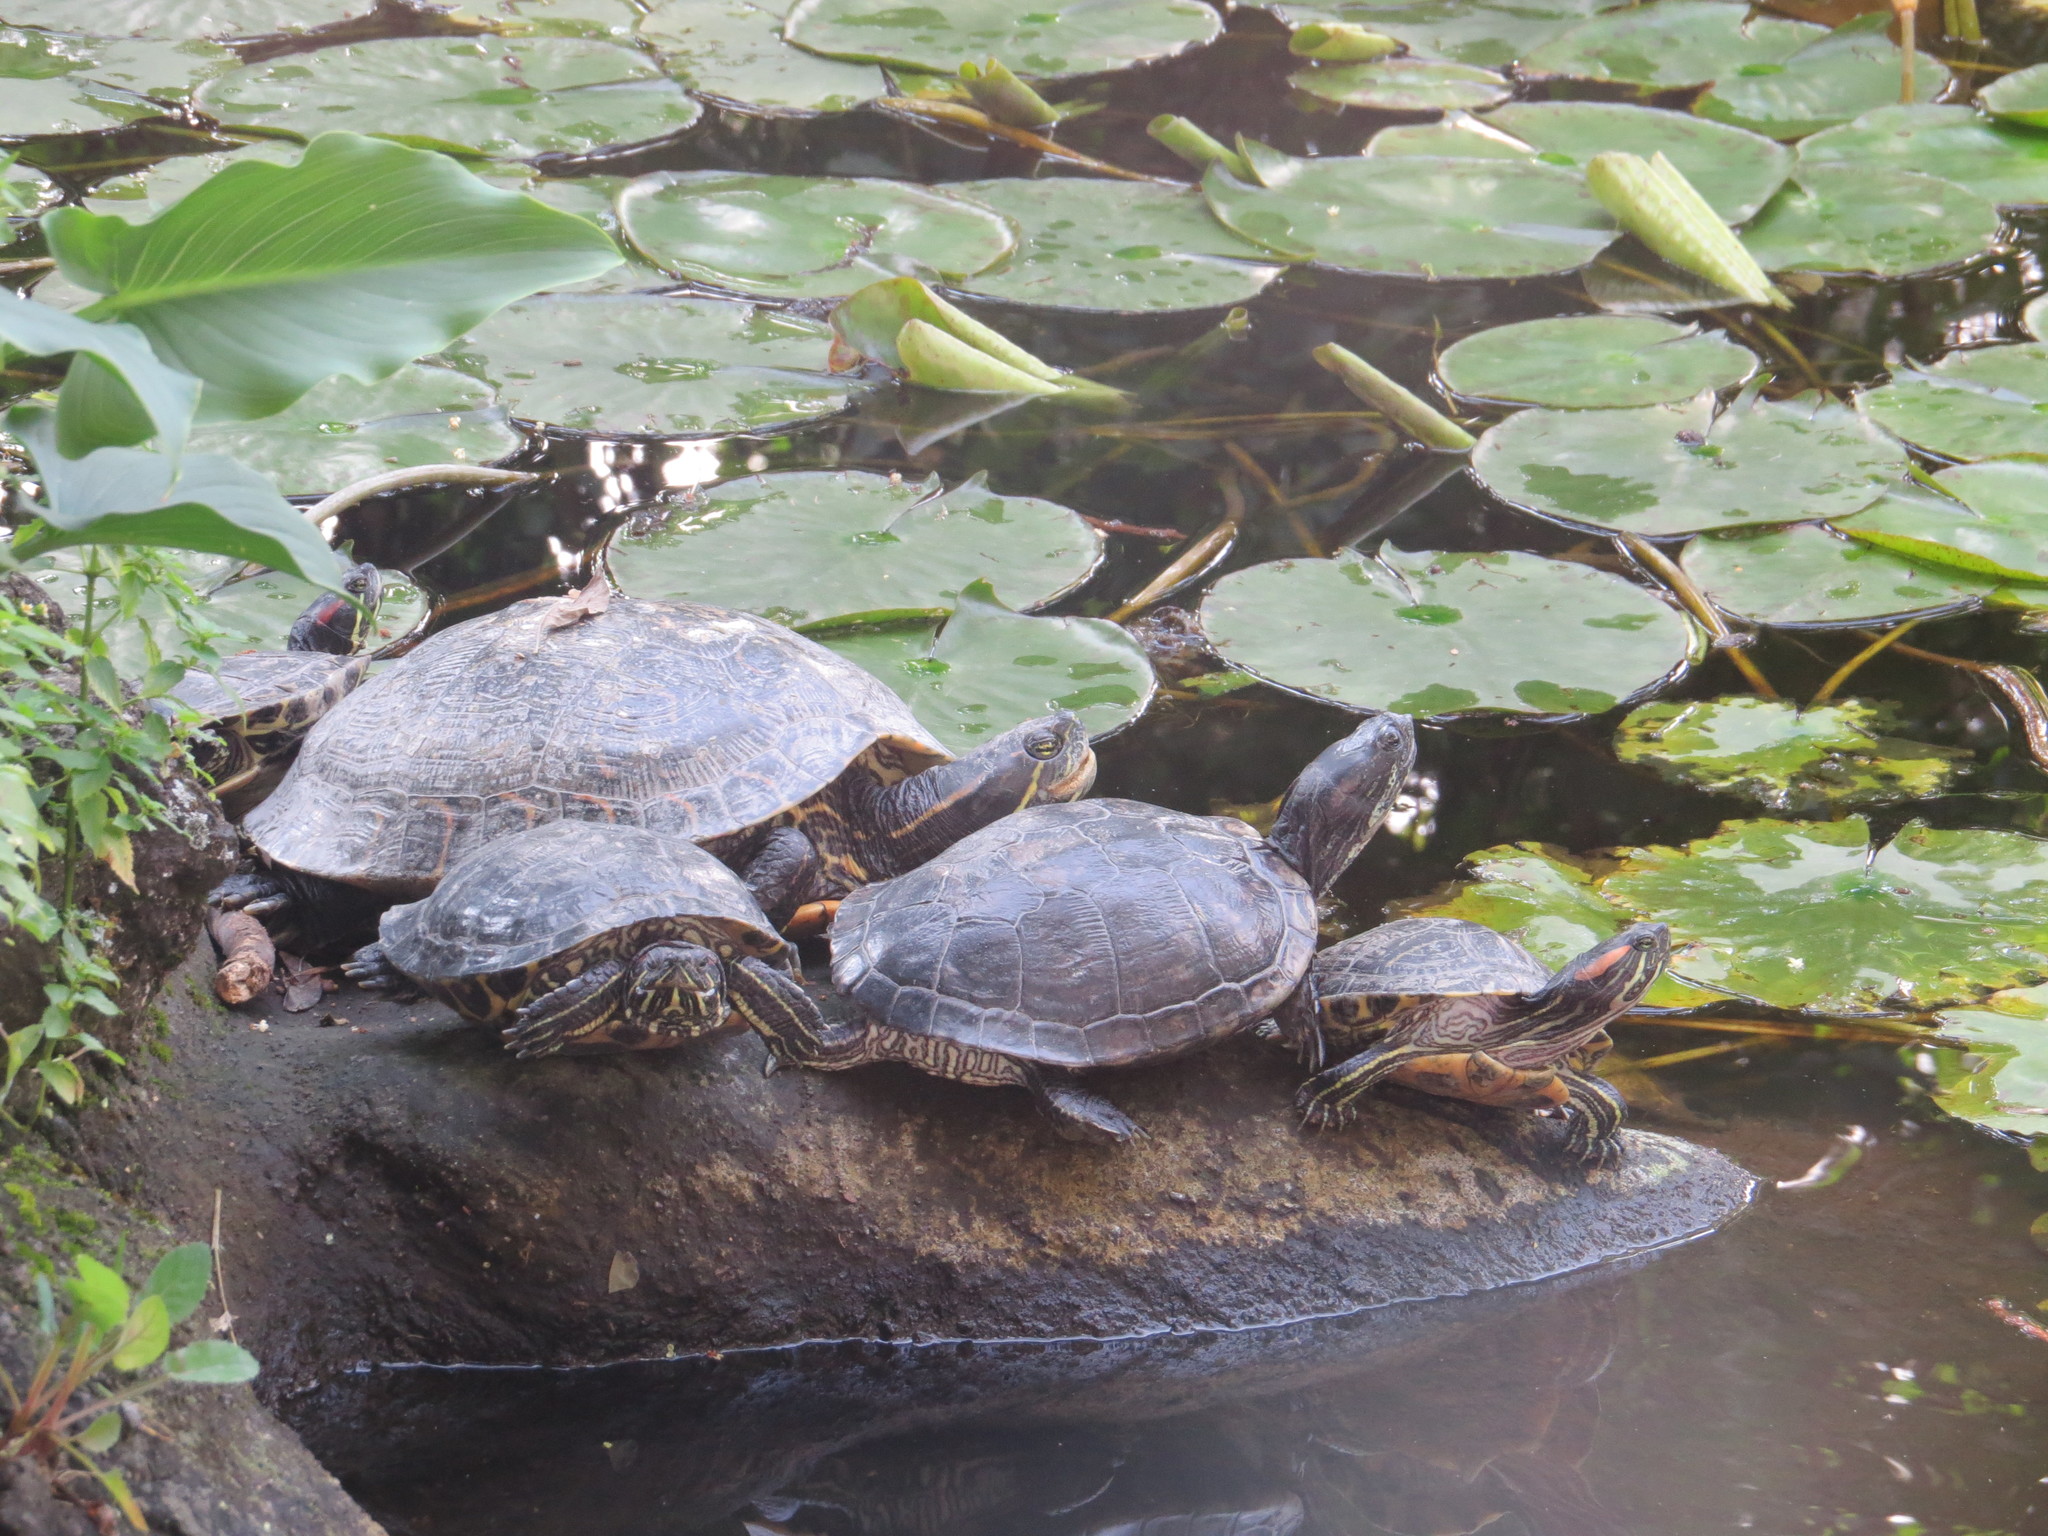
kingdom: Animalia
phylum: Chordata
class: Testudines
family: Emydidae
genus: Trachemys
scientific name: Trachemys scripta
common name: Slider
